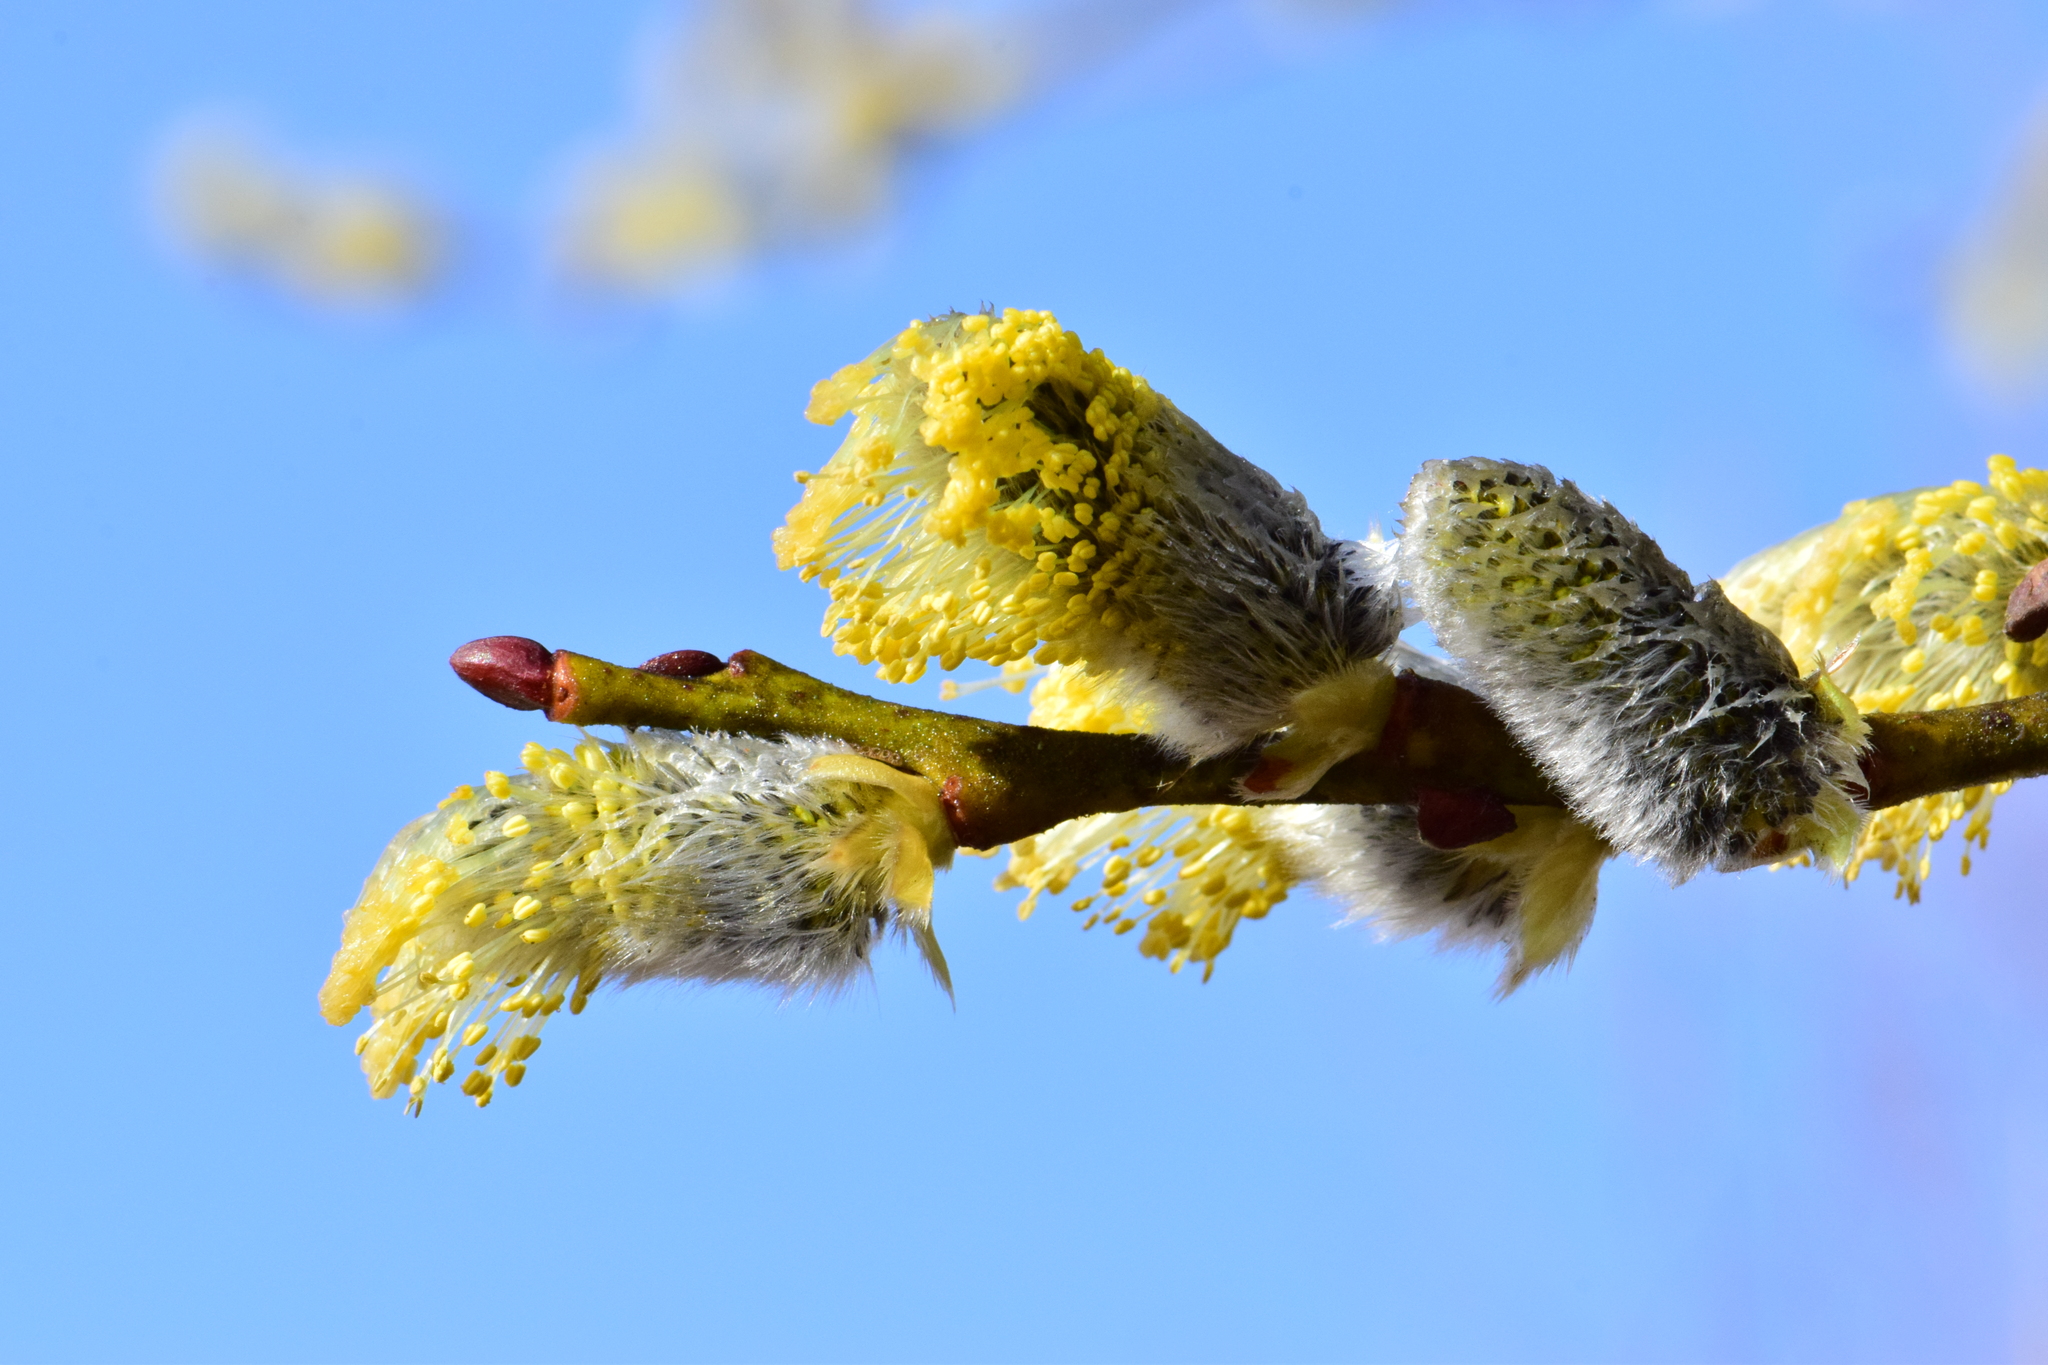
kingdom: Plantae
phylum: Tracheophyta
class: Magnoliopsida
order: Malpighiales
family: Salicaceae
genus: Salix
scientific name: Salix caprea
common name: Goat willow
